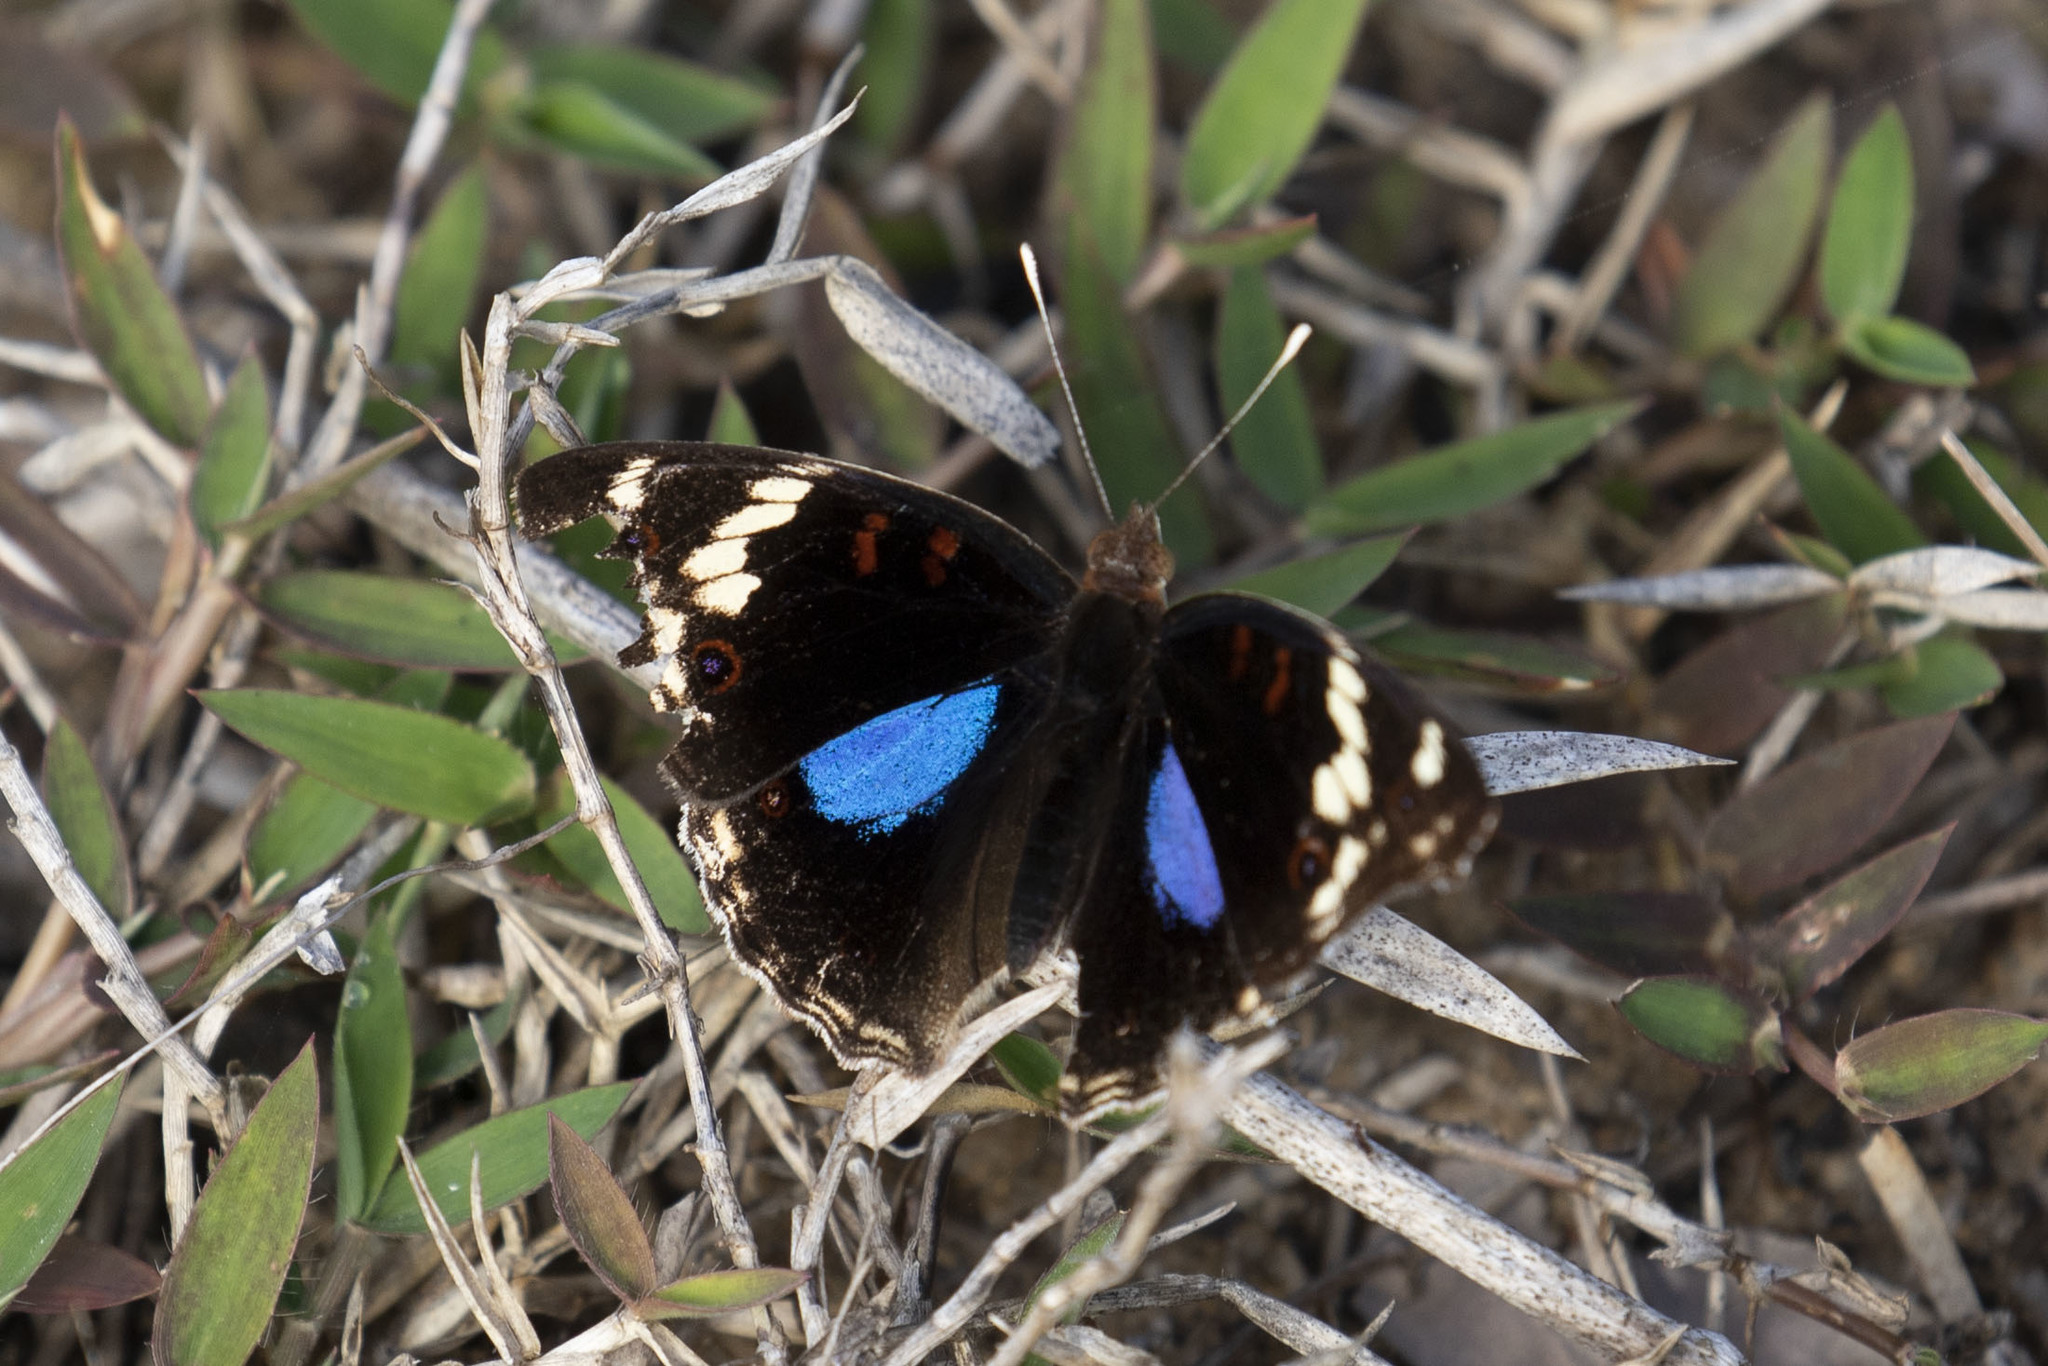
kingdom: Animalia
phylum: Arthropoda
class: Insecta
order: Lepidoptera
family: Nymphalidae
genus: Junonia
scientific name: Junonia oenone
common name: Dark blue pansy
